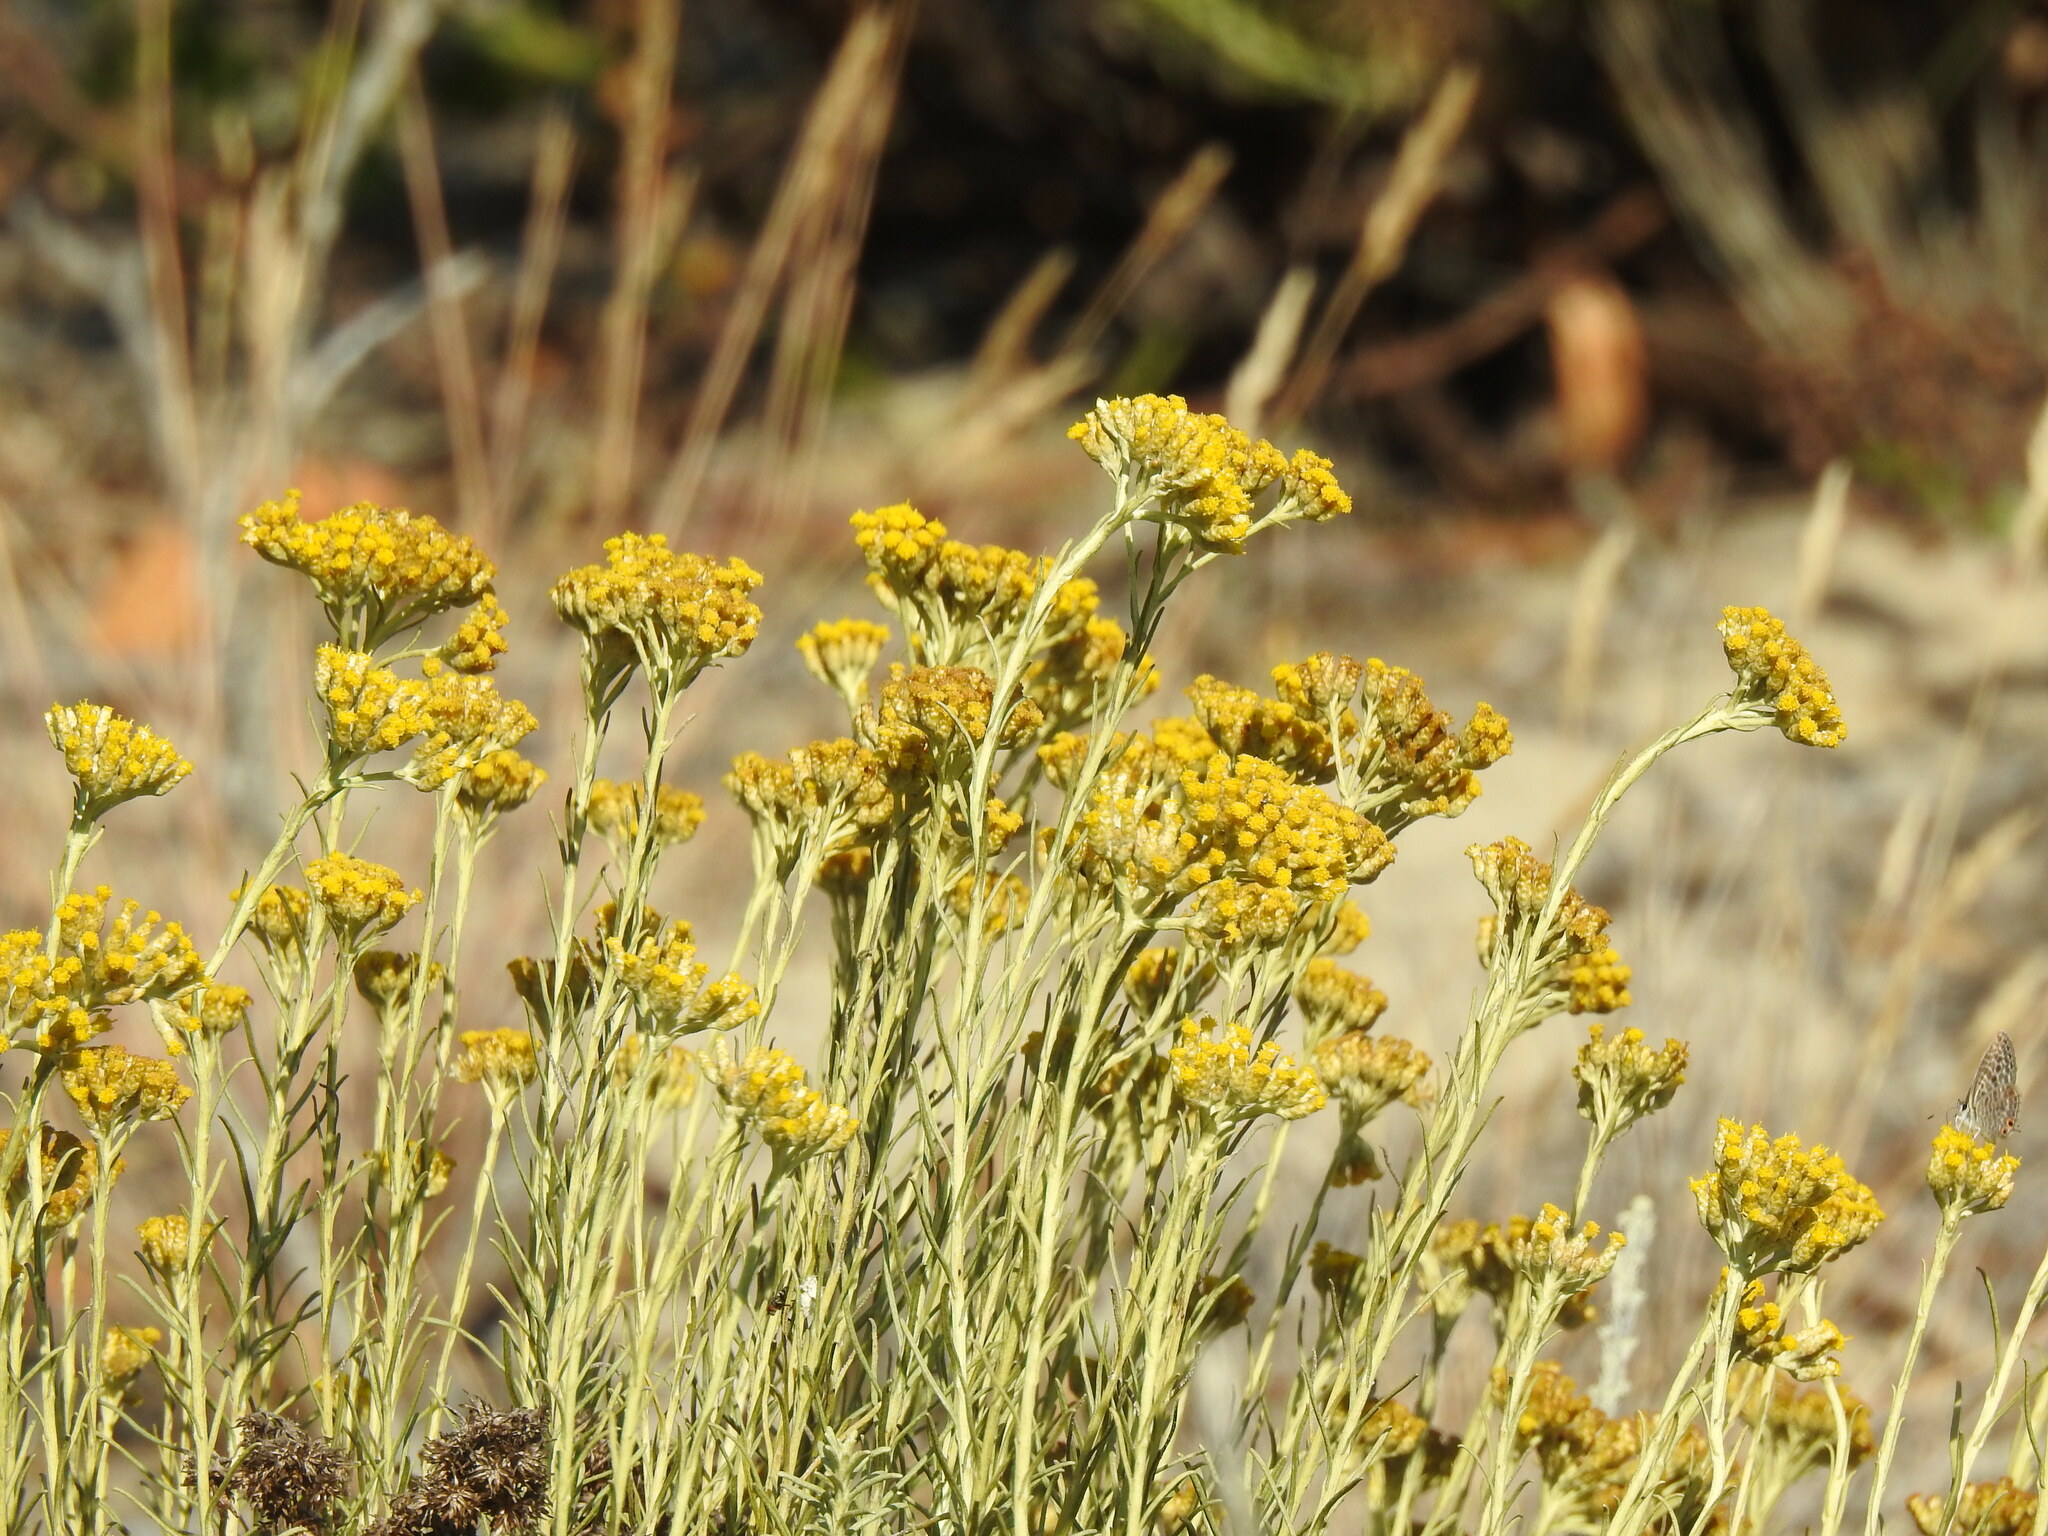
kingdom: Plantae
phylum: Tracheophyta
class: Magnoliopsida
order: Asterales
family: Asteraceae
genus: Helichrysum
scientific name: Helichrysum serotinum
